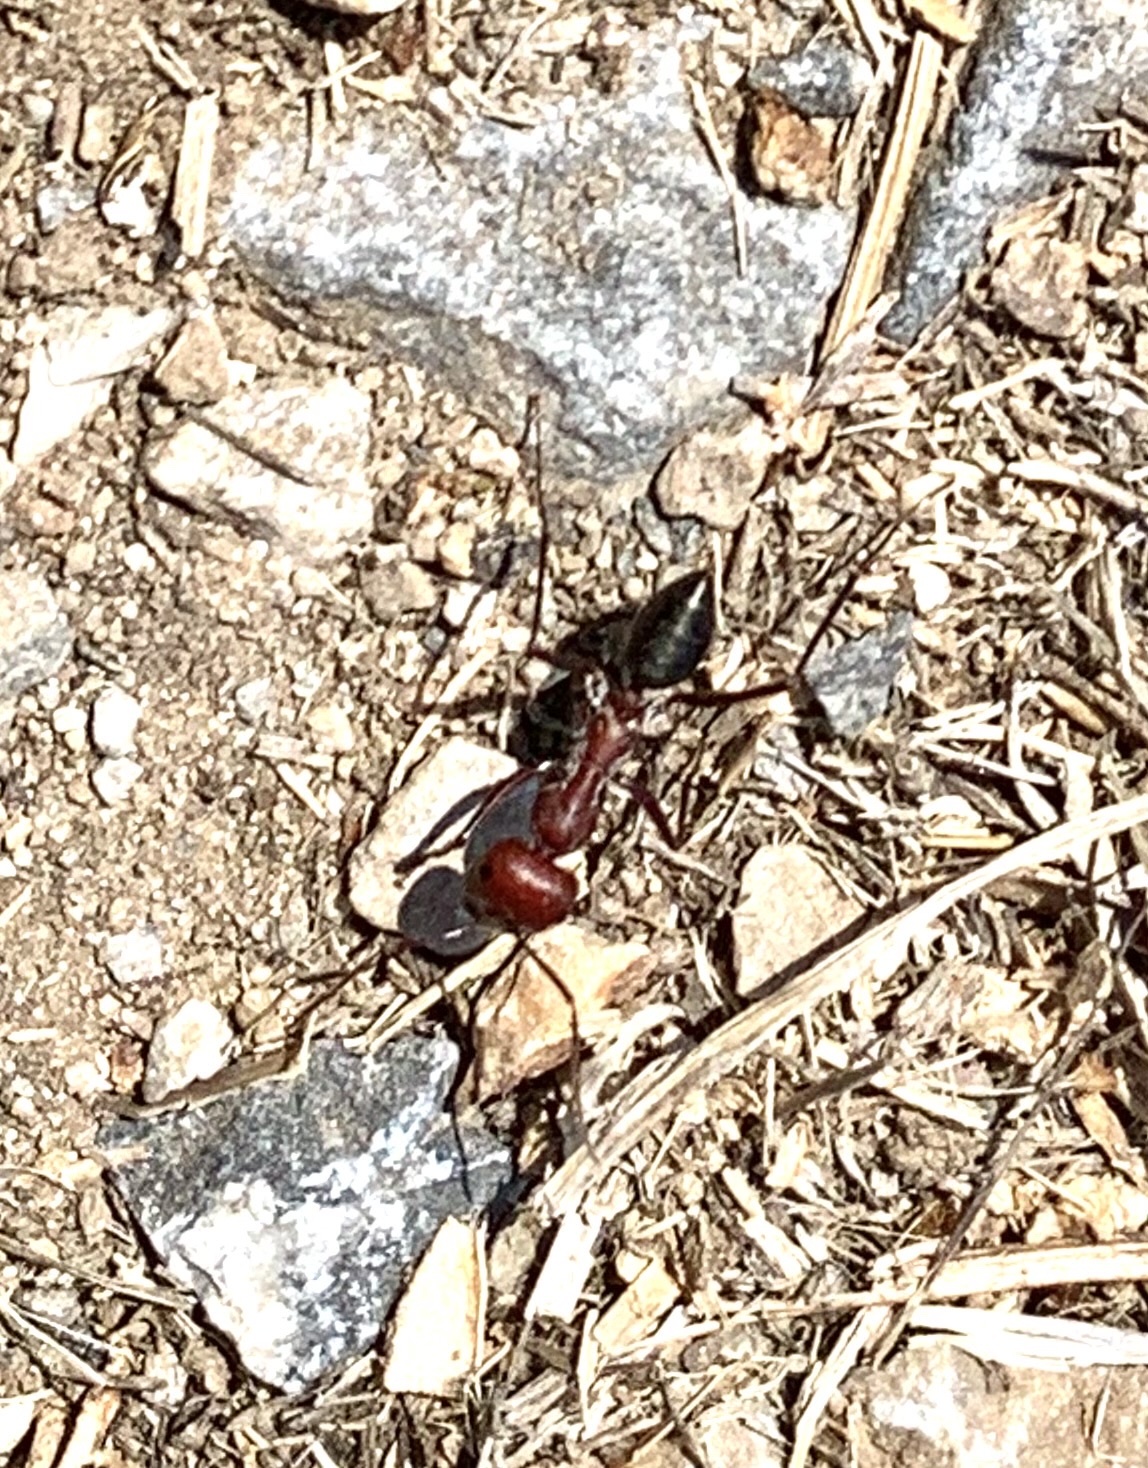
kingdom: Animalia
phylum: Arthropoda
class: Insecta
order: Hymenoptera
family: Formicidae
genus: Cataglyphis
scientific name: Cataglyphis nodus
